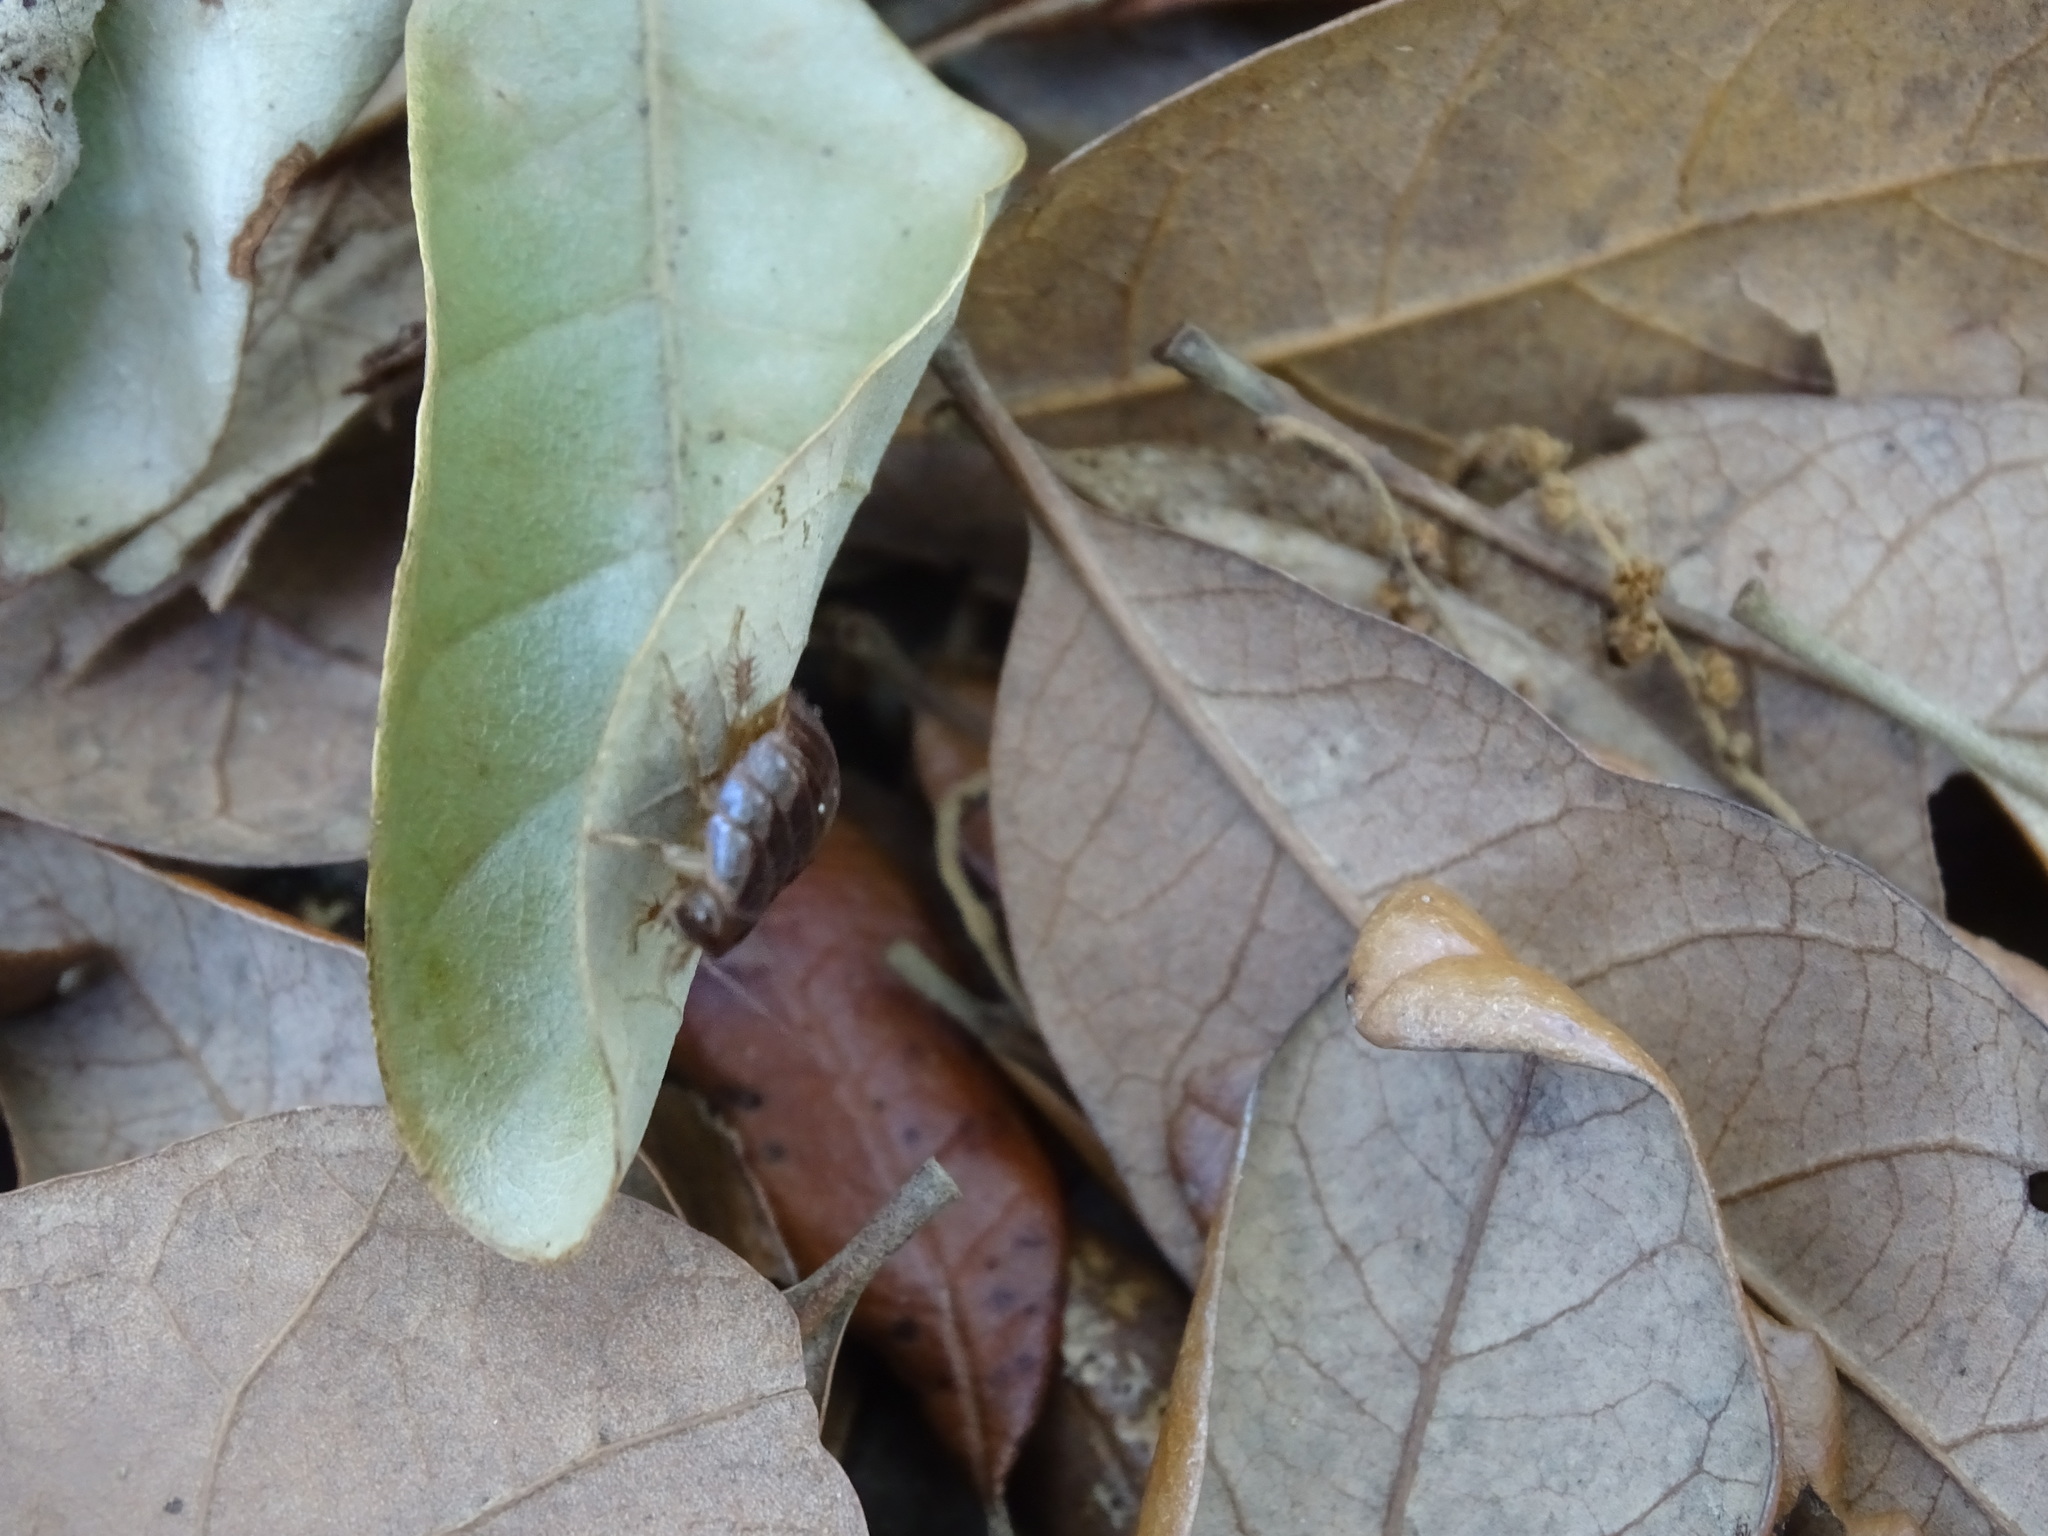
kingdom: Animalia
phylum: Arthropoda
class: Insecta
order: Blattodea
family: Blaberidae
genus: Pycnoscelus
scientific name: Pycnoscelus surinamensis
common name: Surinam cockroach
